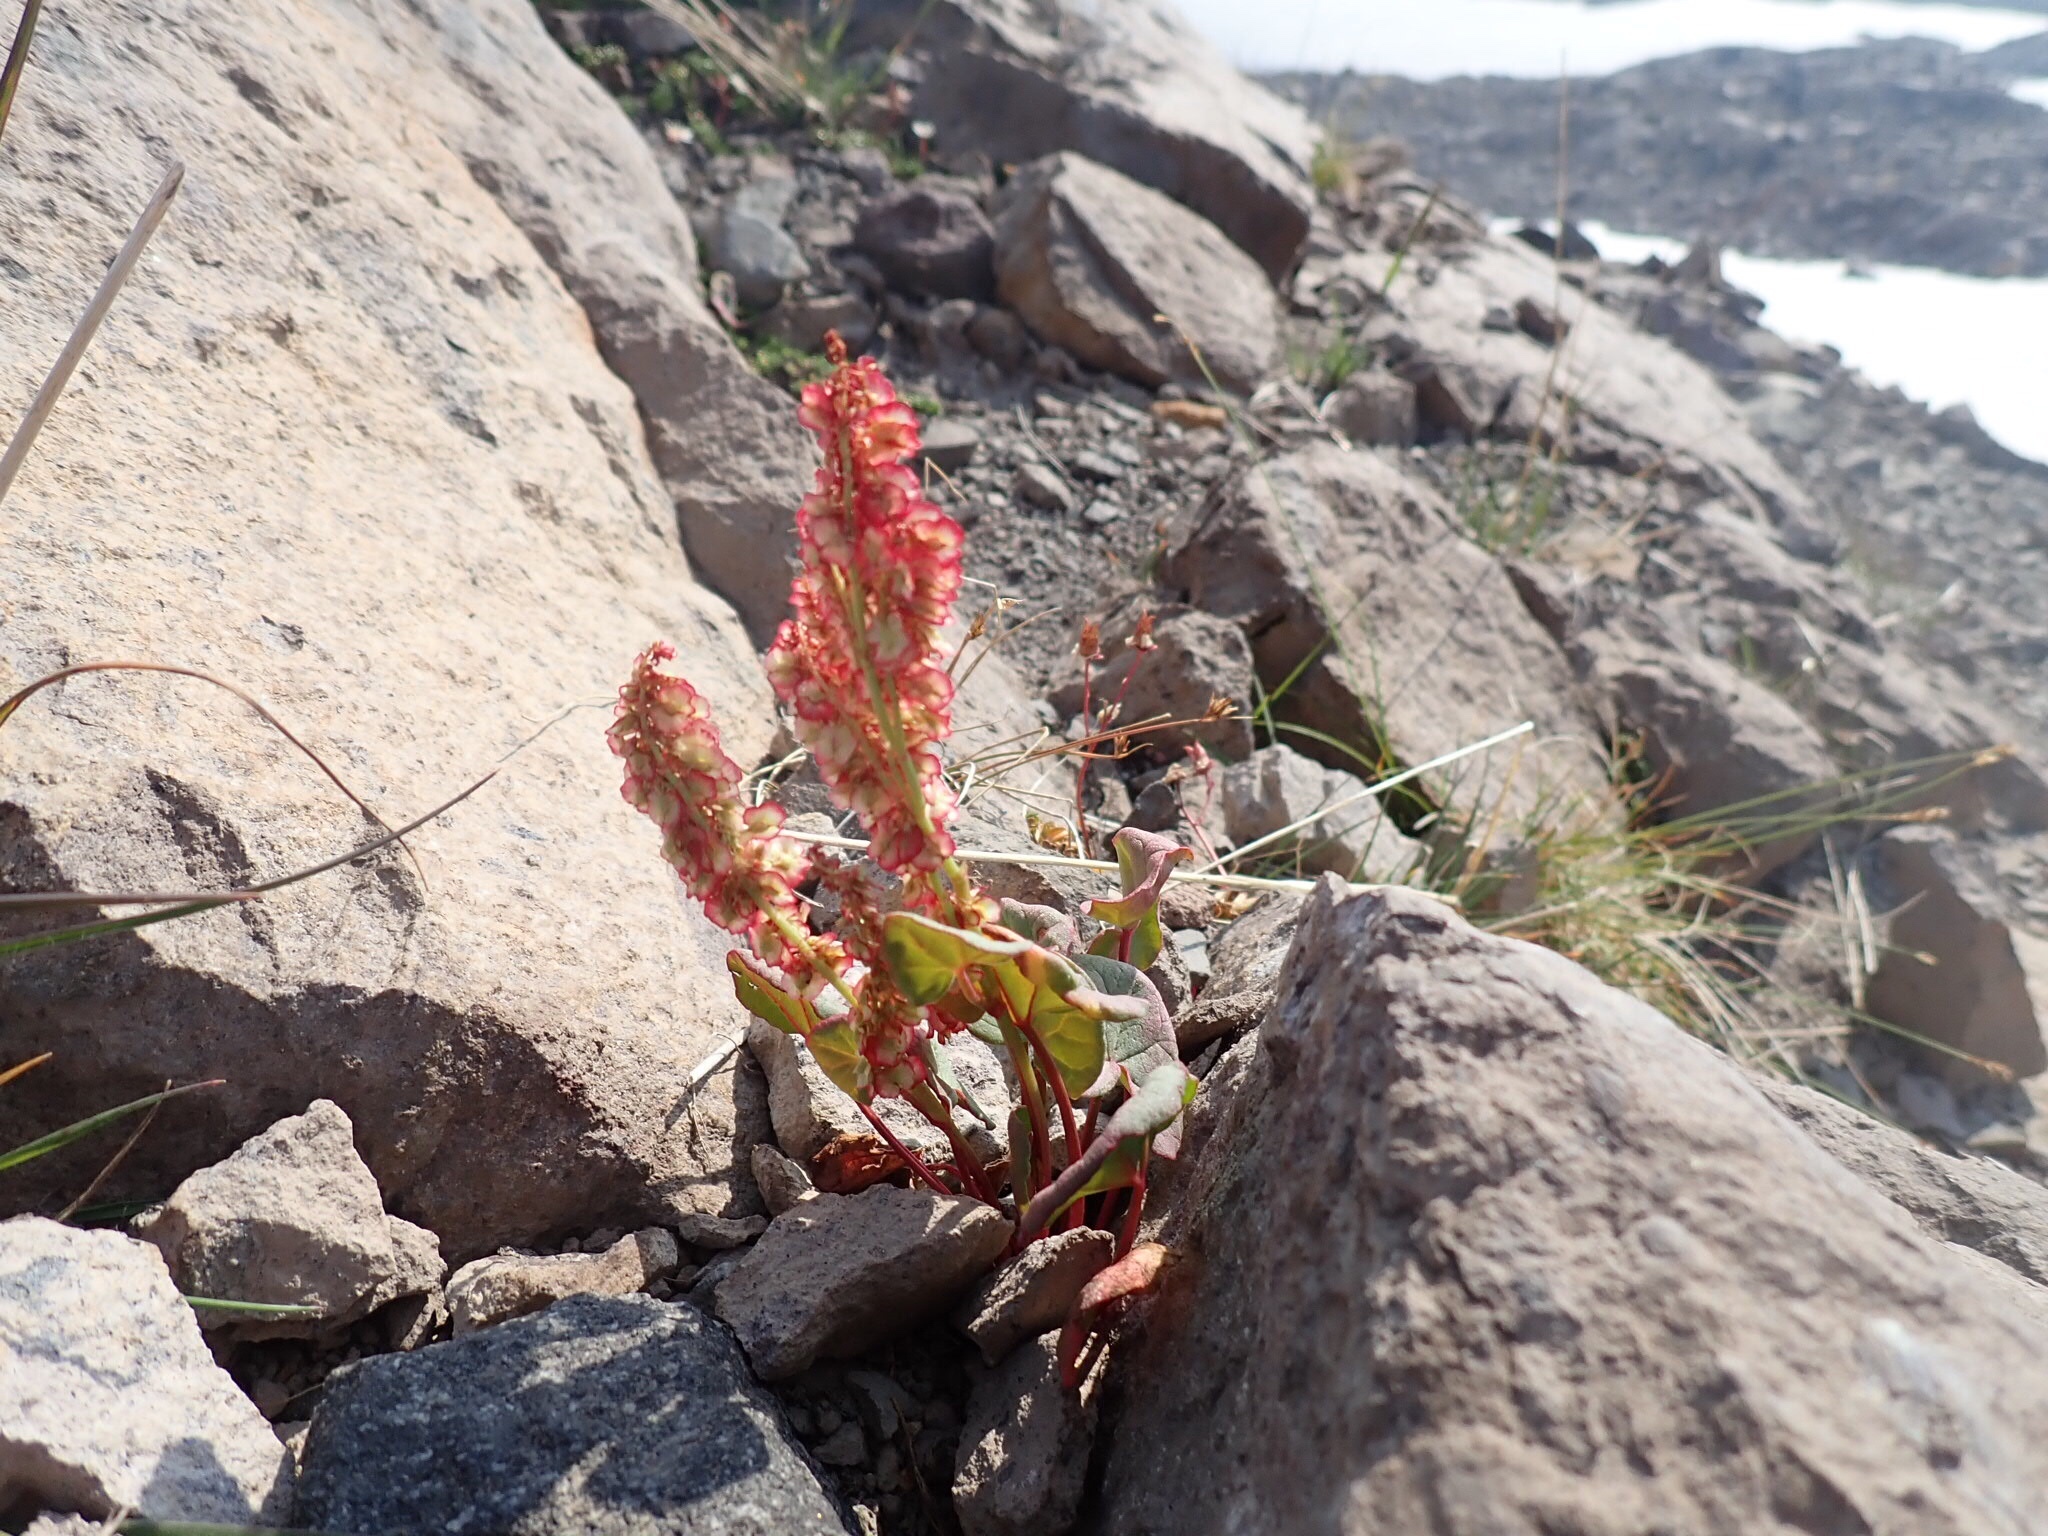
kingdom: Plantae
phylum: Tracheophyta
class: Magnoliopsida
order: Caryophyllales
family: Polygonaceae
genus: Oxyria
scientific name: Oxyria digyna
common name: Alpine mountain-sorrel
